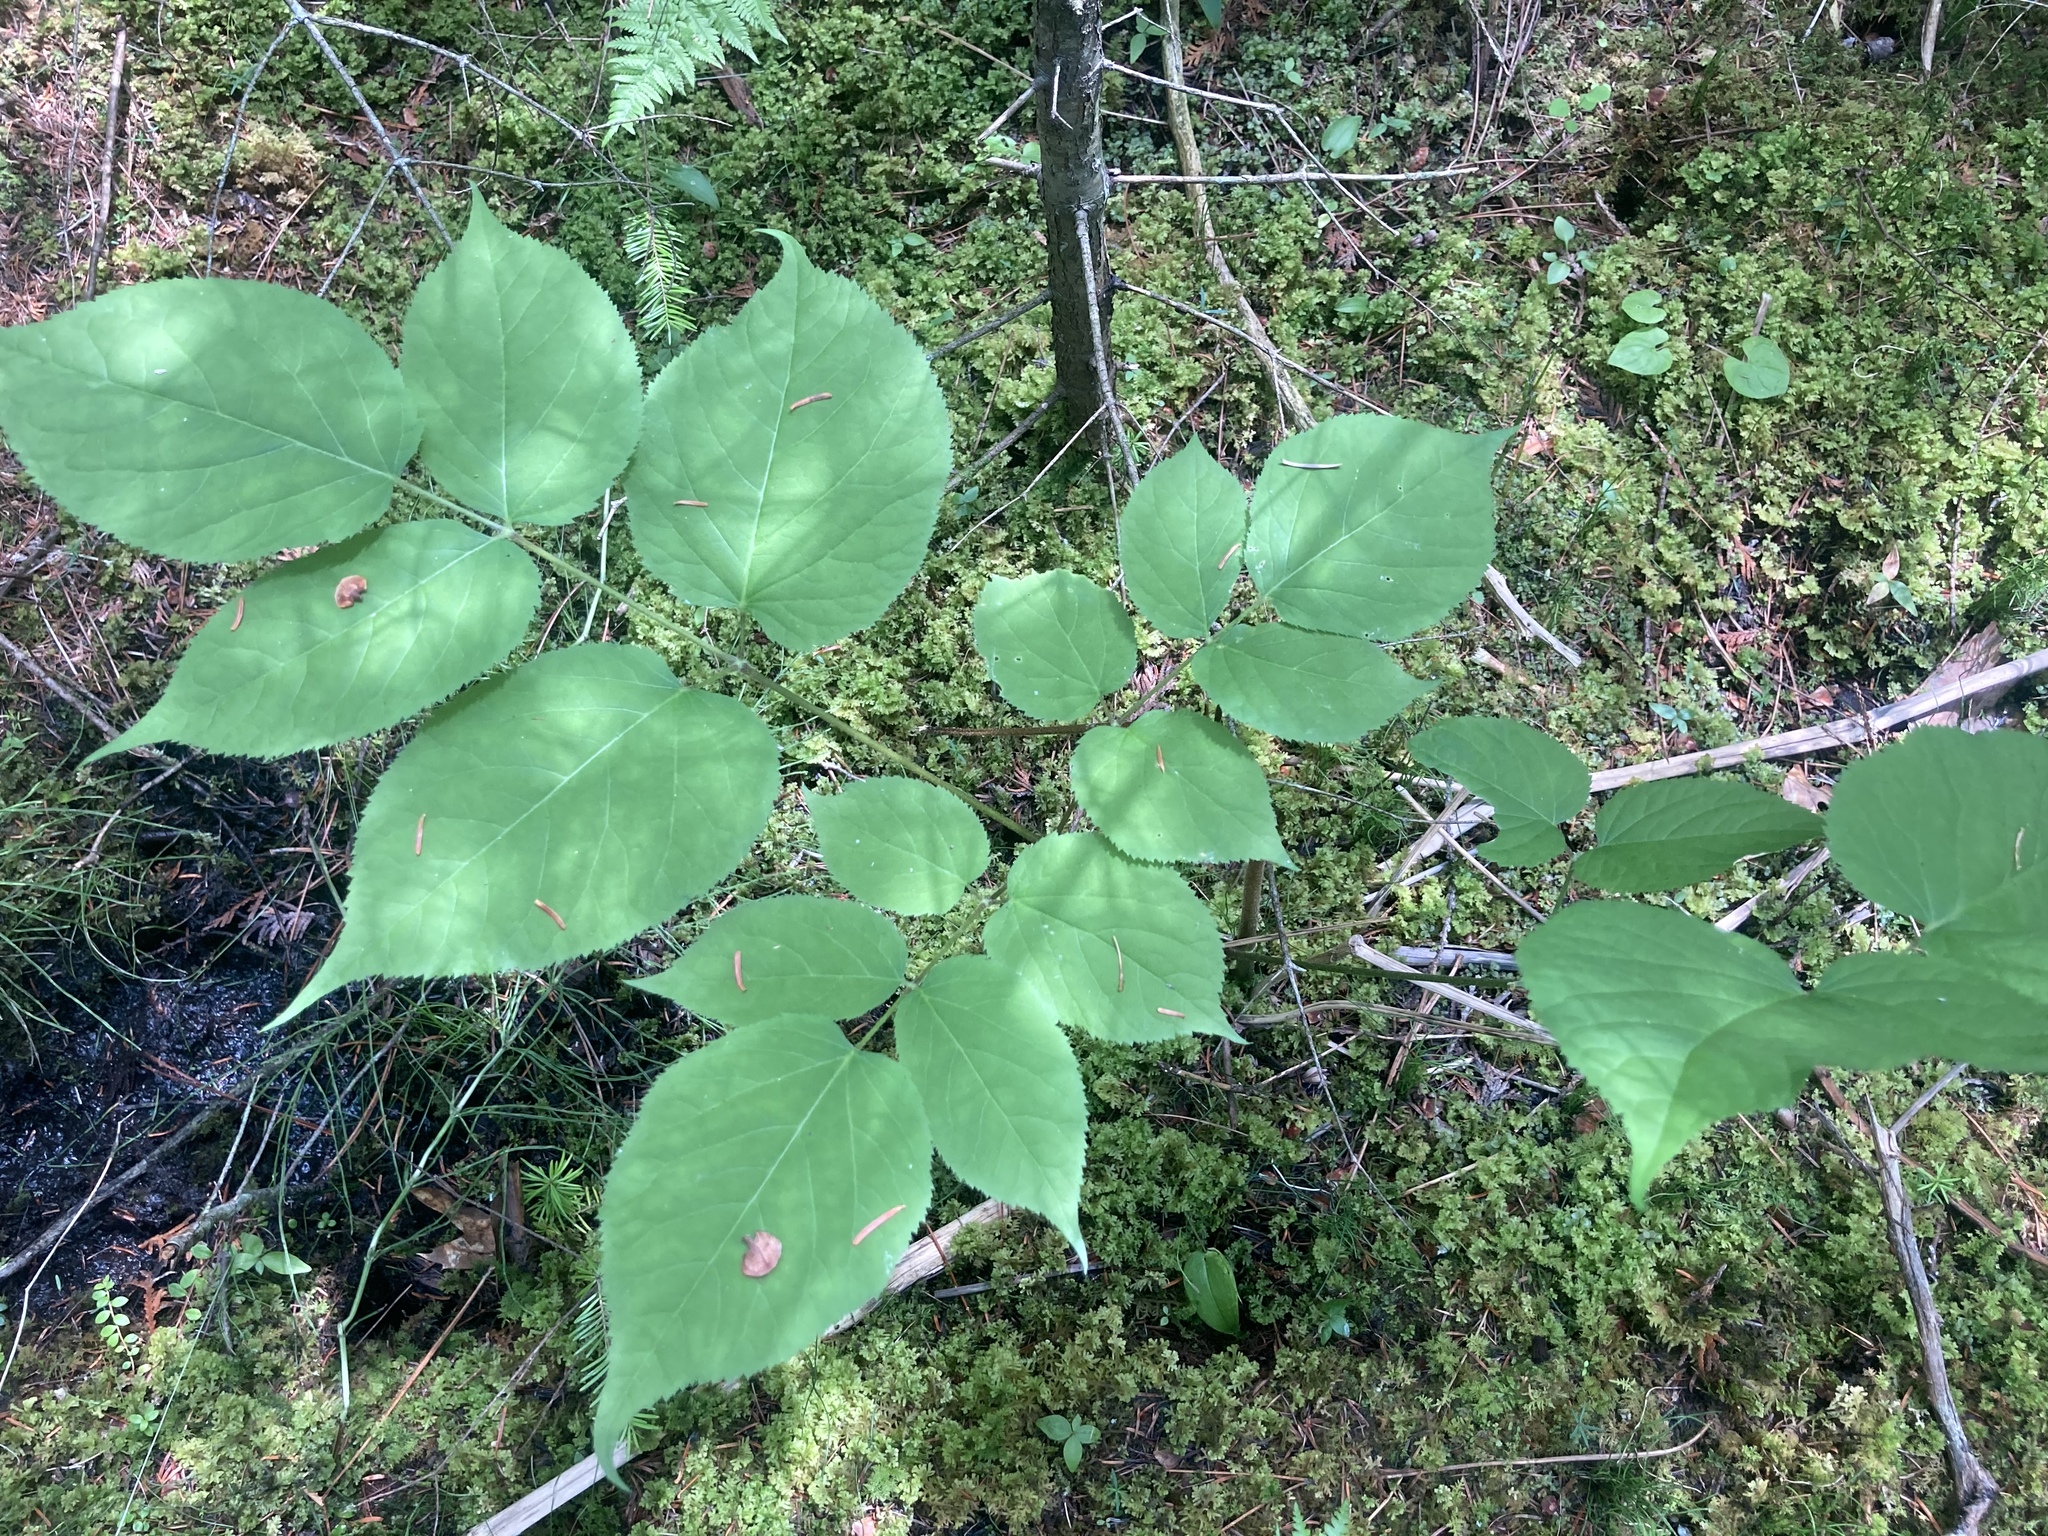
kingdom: Plantae
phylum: Tracheophyta
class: Magnoliopsida
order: Apiales
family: Araliaceae
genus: Aralia
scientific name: Aralia racemosa
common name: American-spikenard
